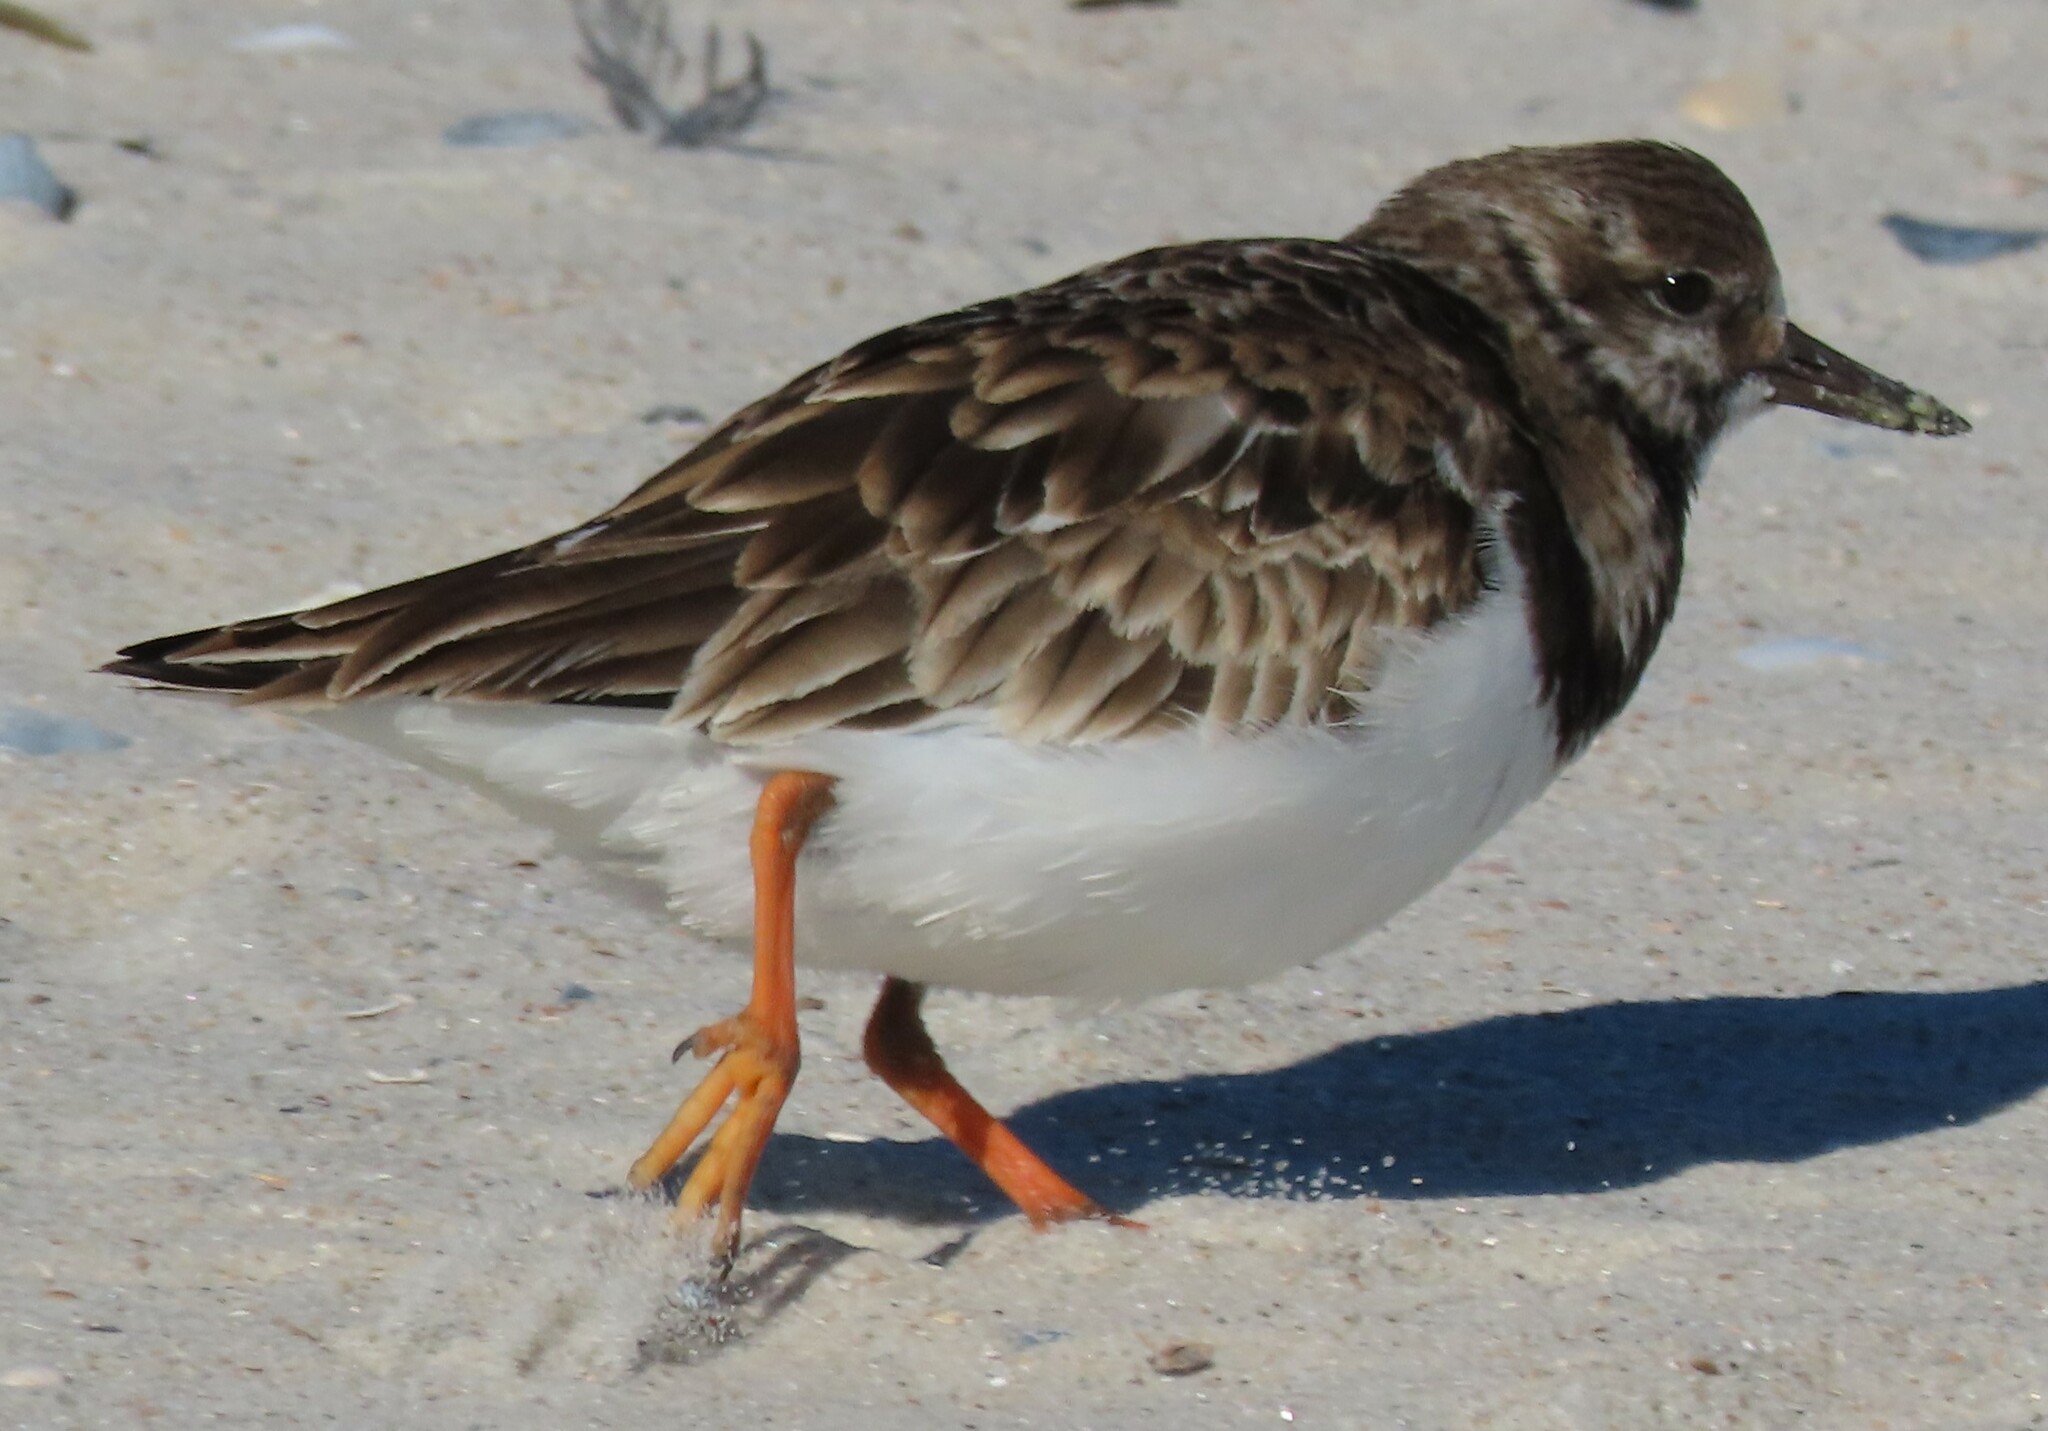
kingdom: Animalia
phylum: Chordata
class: Aves
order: Charadriiformes
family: Scolopacidae
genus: Arenaria
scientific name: Arenaria interpres
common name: Ruddy turnstone
